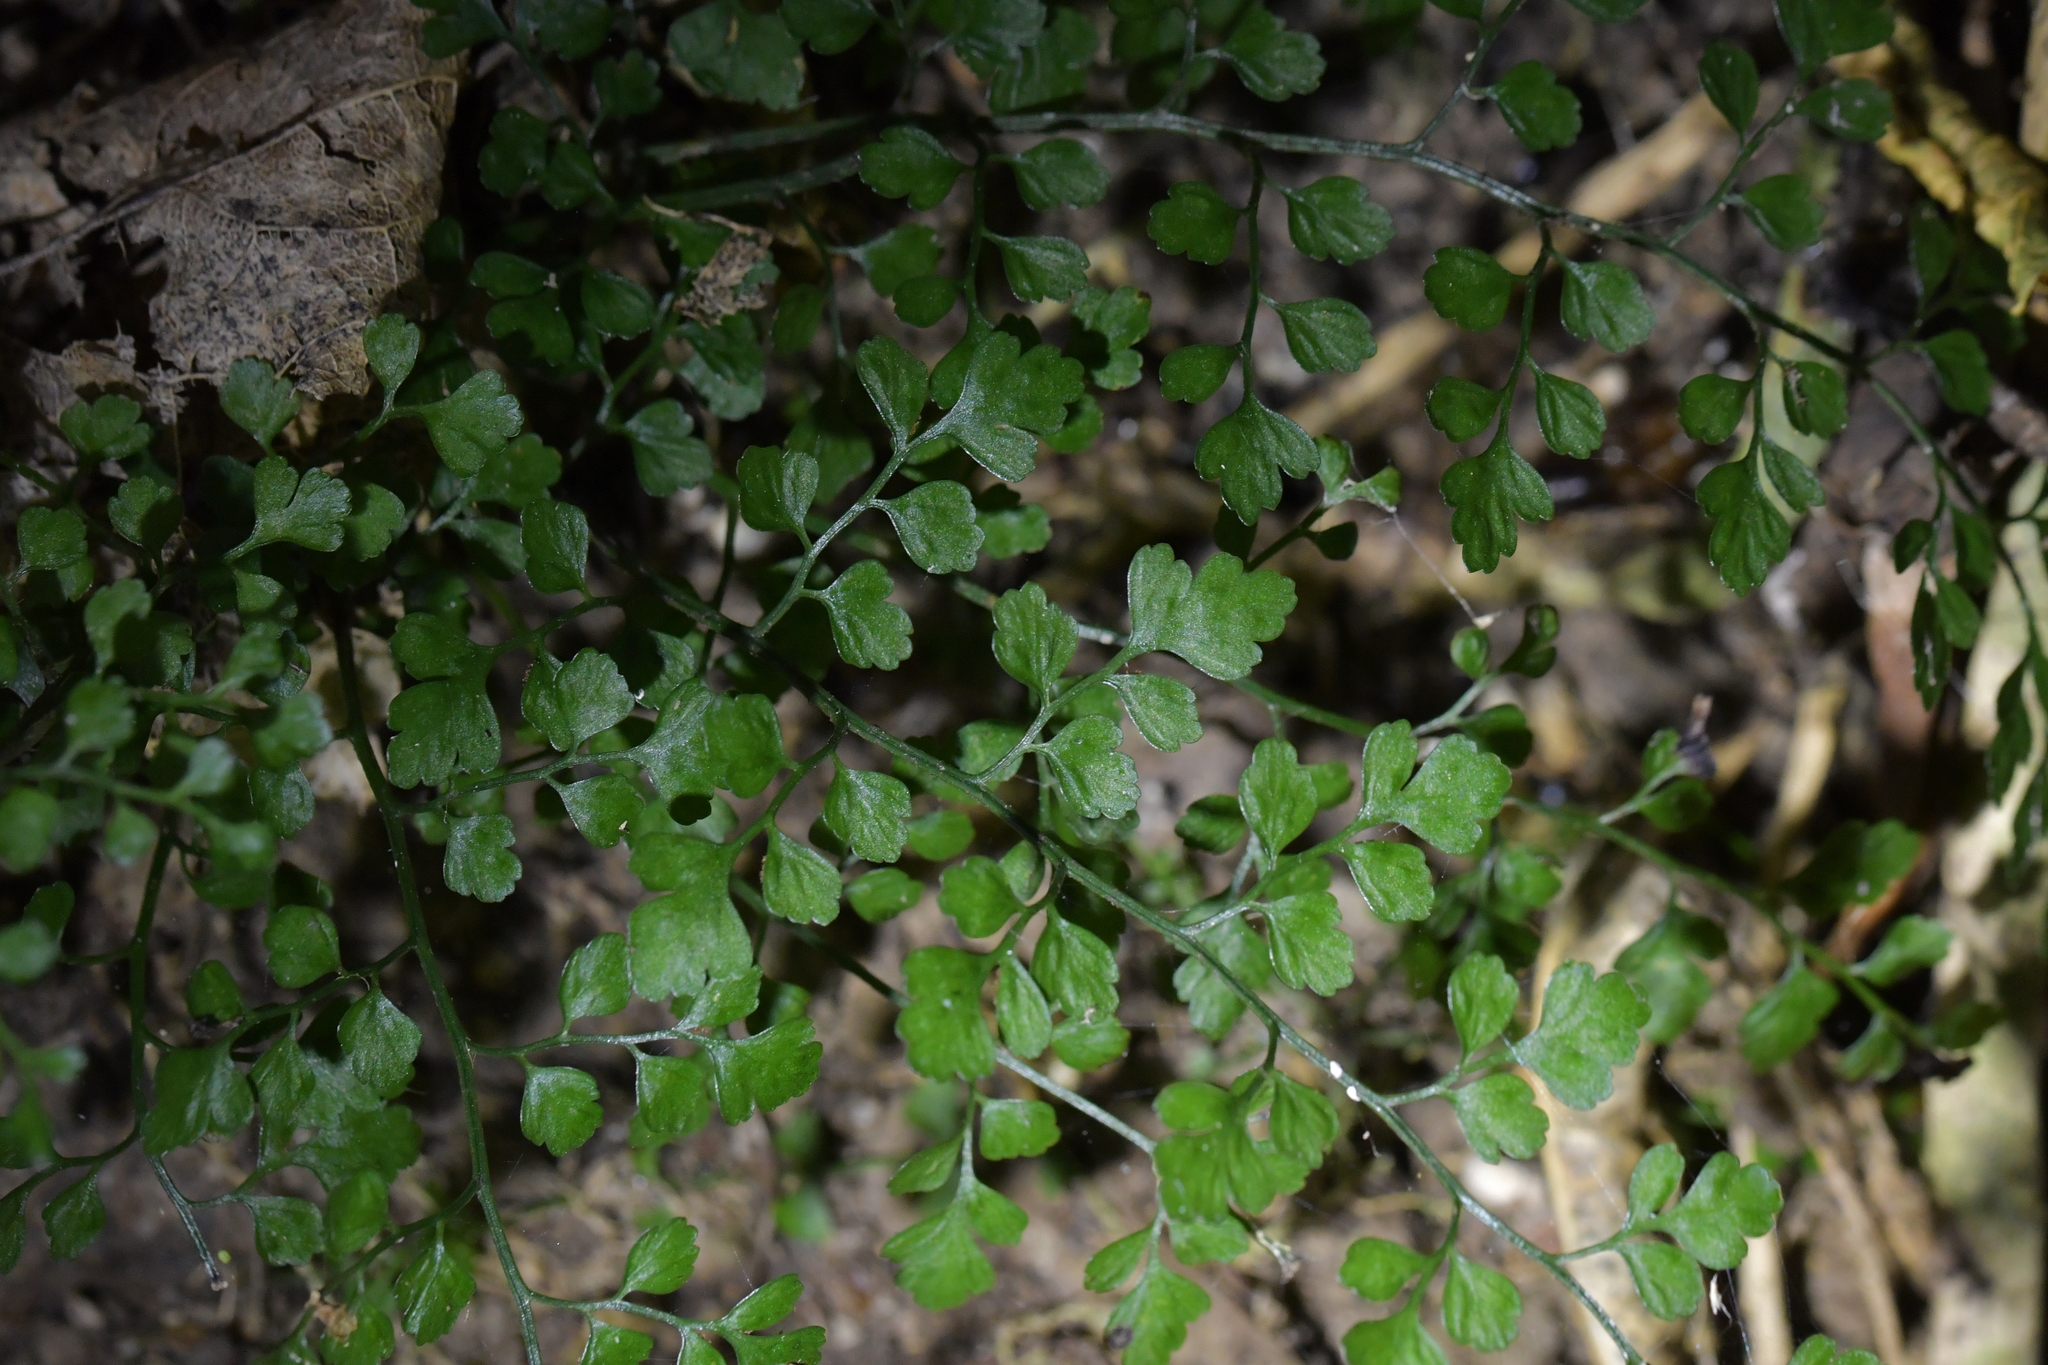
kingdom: Plantae
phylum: Tracheophyta
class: Polypodiopsida
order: Polypodiales
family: Aspleniaceae
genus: Asplenium
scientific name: Asplenium hookerianum
